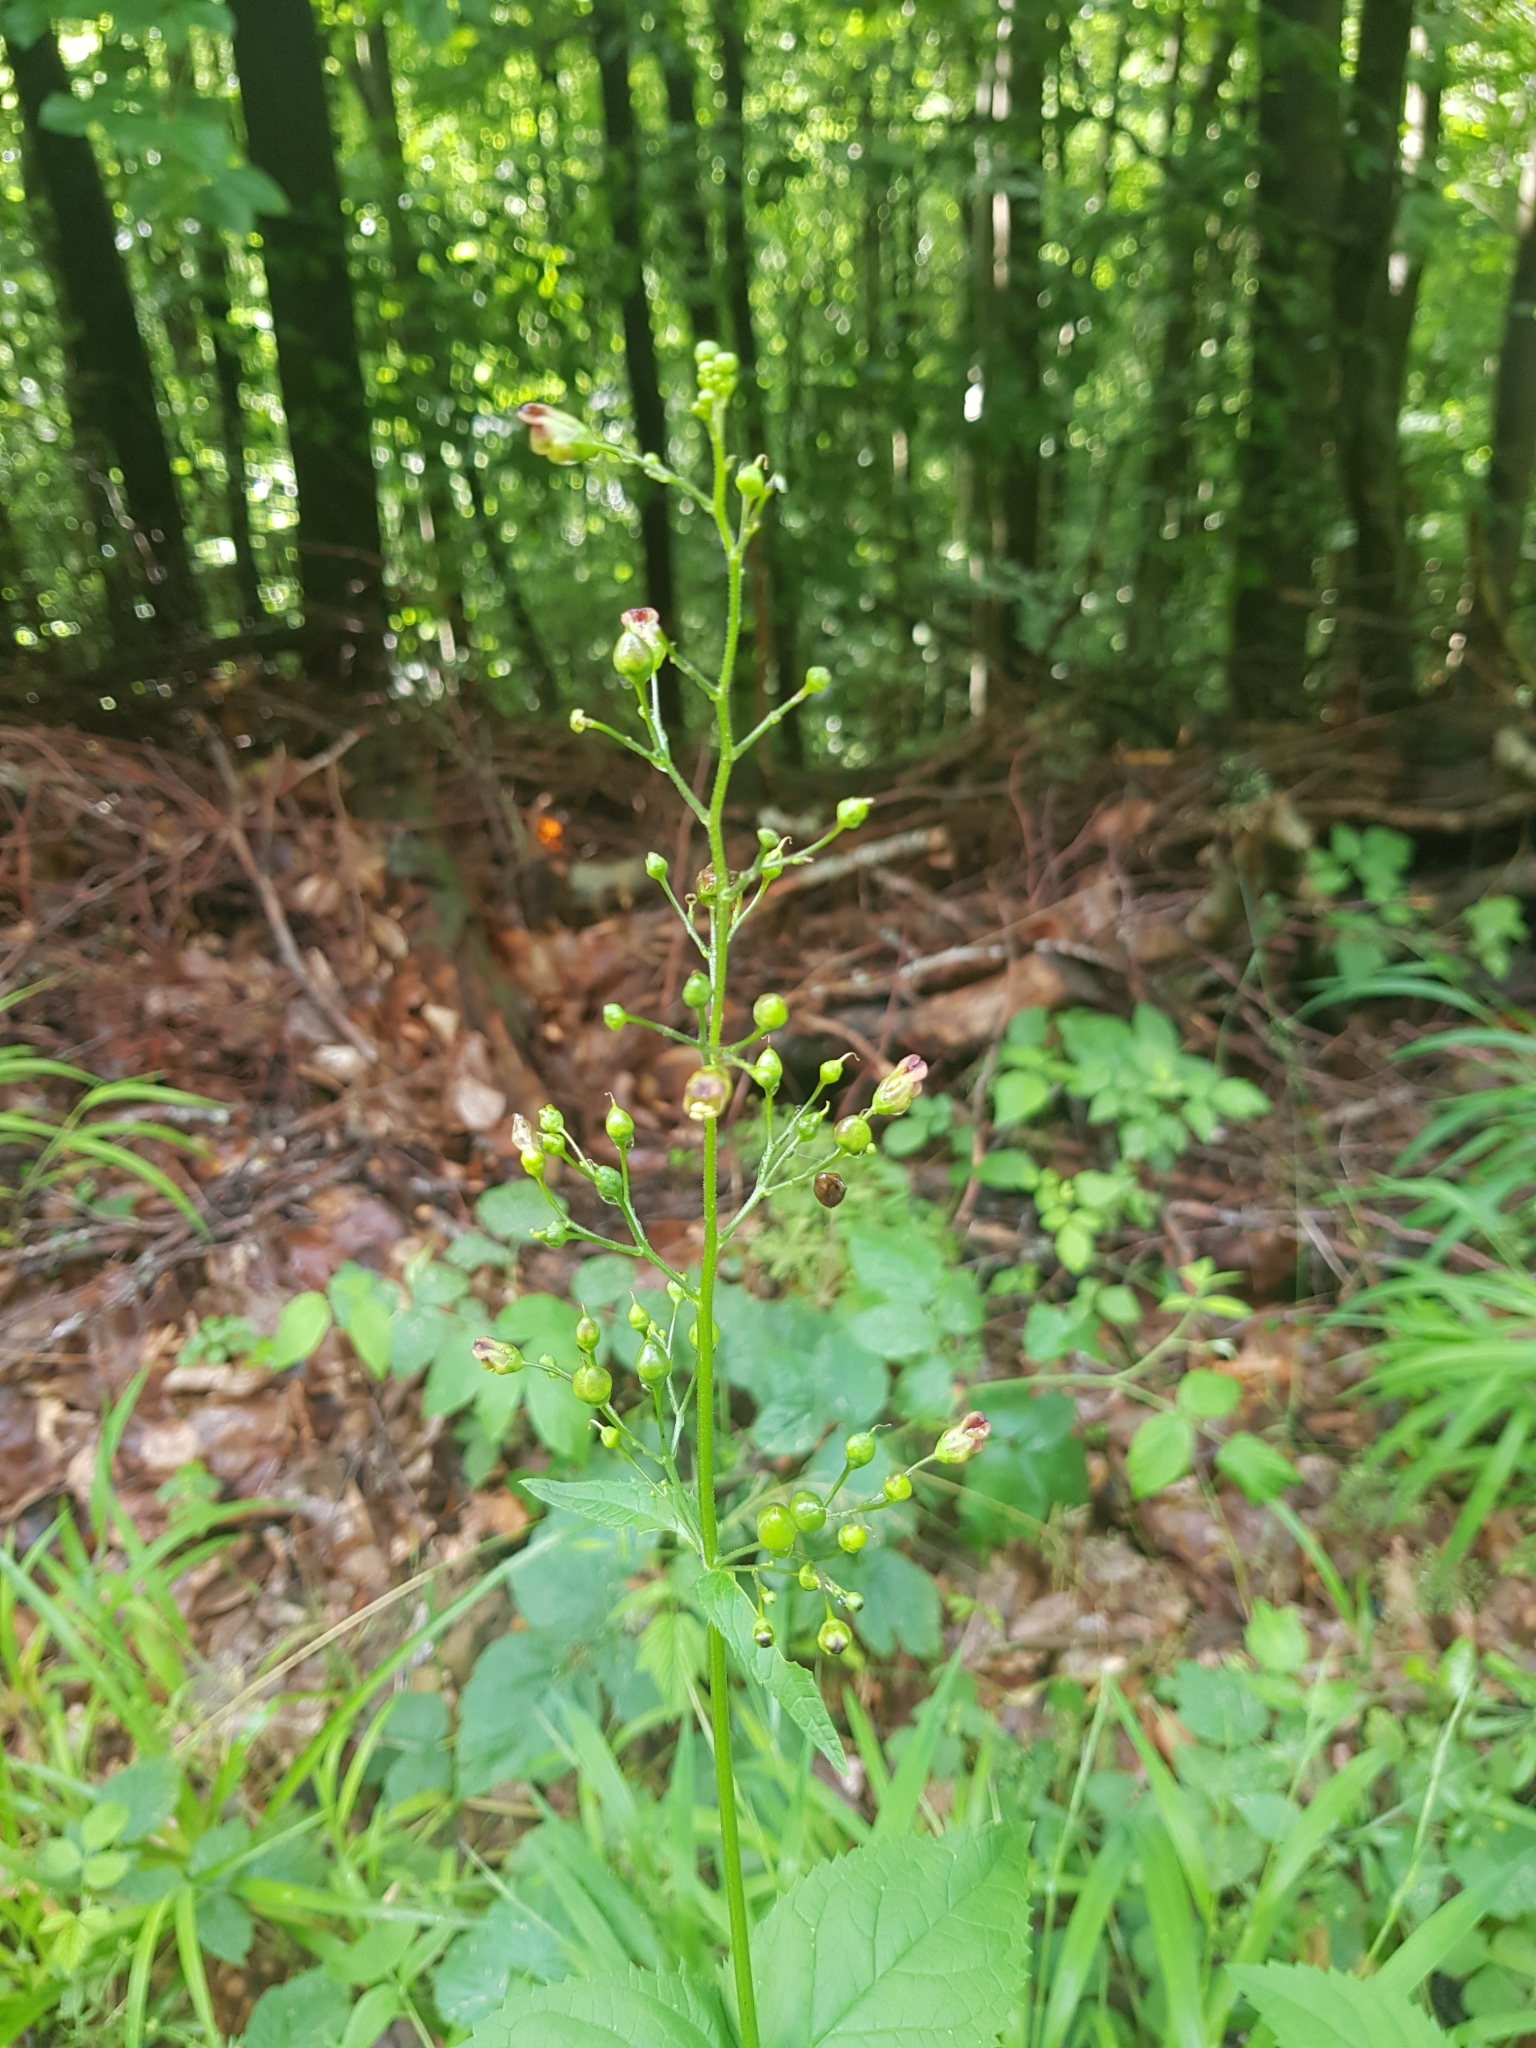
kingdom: Plantae
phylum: Tracheophyta
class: Magnoliopsida
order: Lamiales
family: Scrophulariaceae
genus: Scrophularia
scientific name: Scrophularia nodosa
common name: Common figwort
